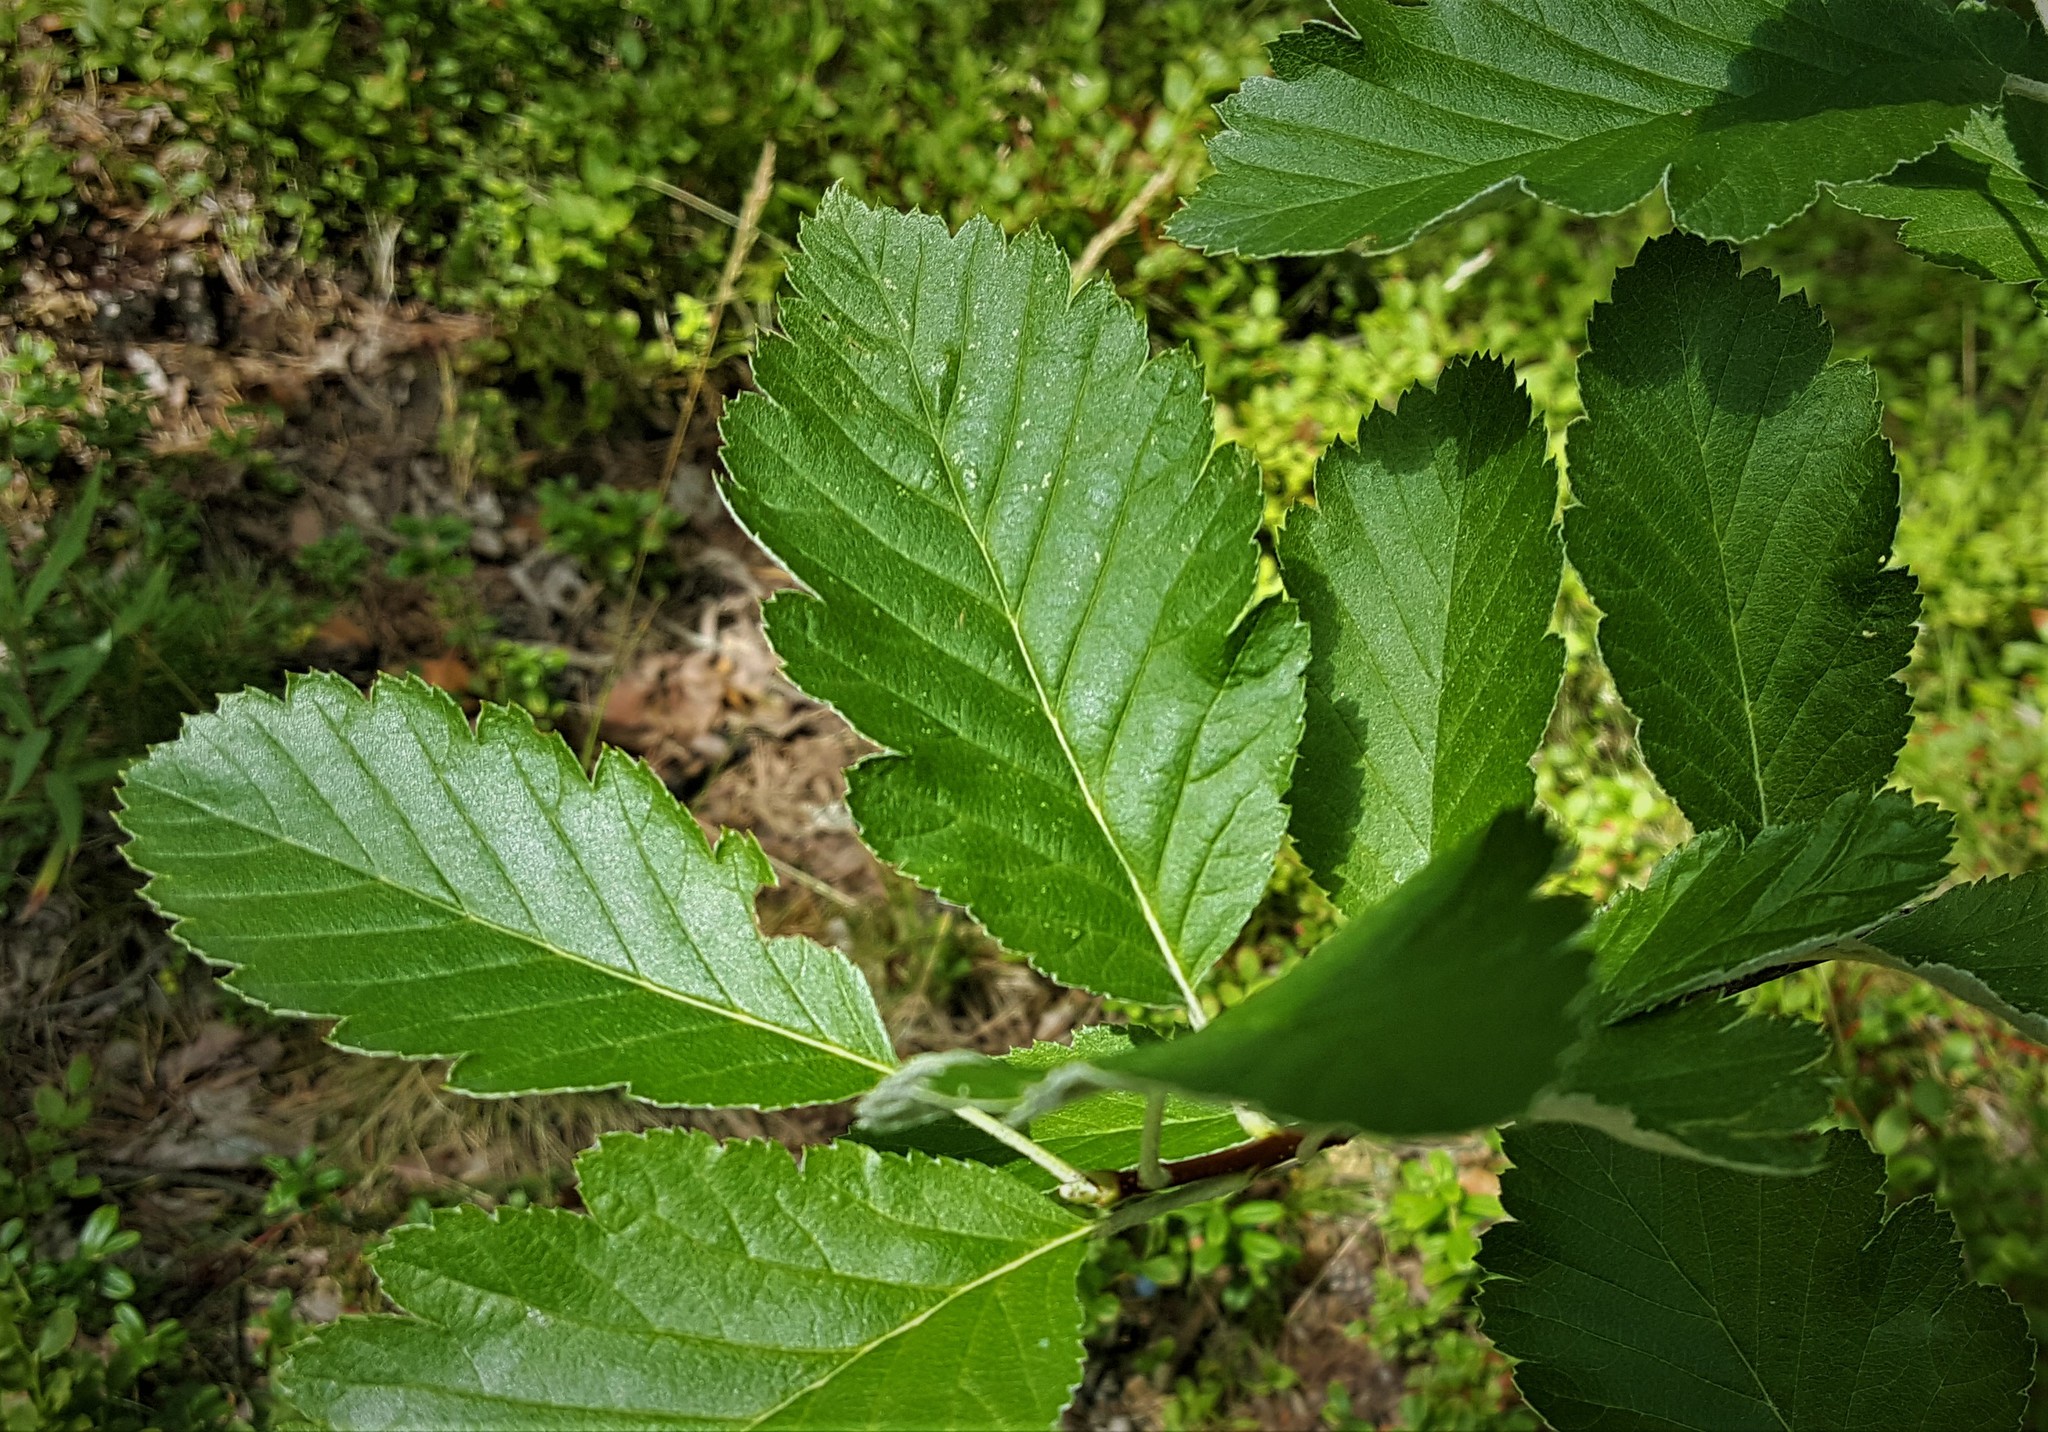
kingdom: Plantae
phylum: Tracheophyta
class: Magnoliopsida
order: Rosales
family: Rosaceae
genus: Scandosorbus
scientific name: Scandosorbus intermedia
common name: Swedish whitebeam
